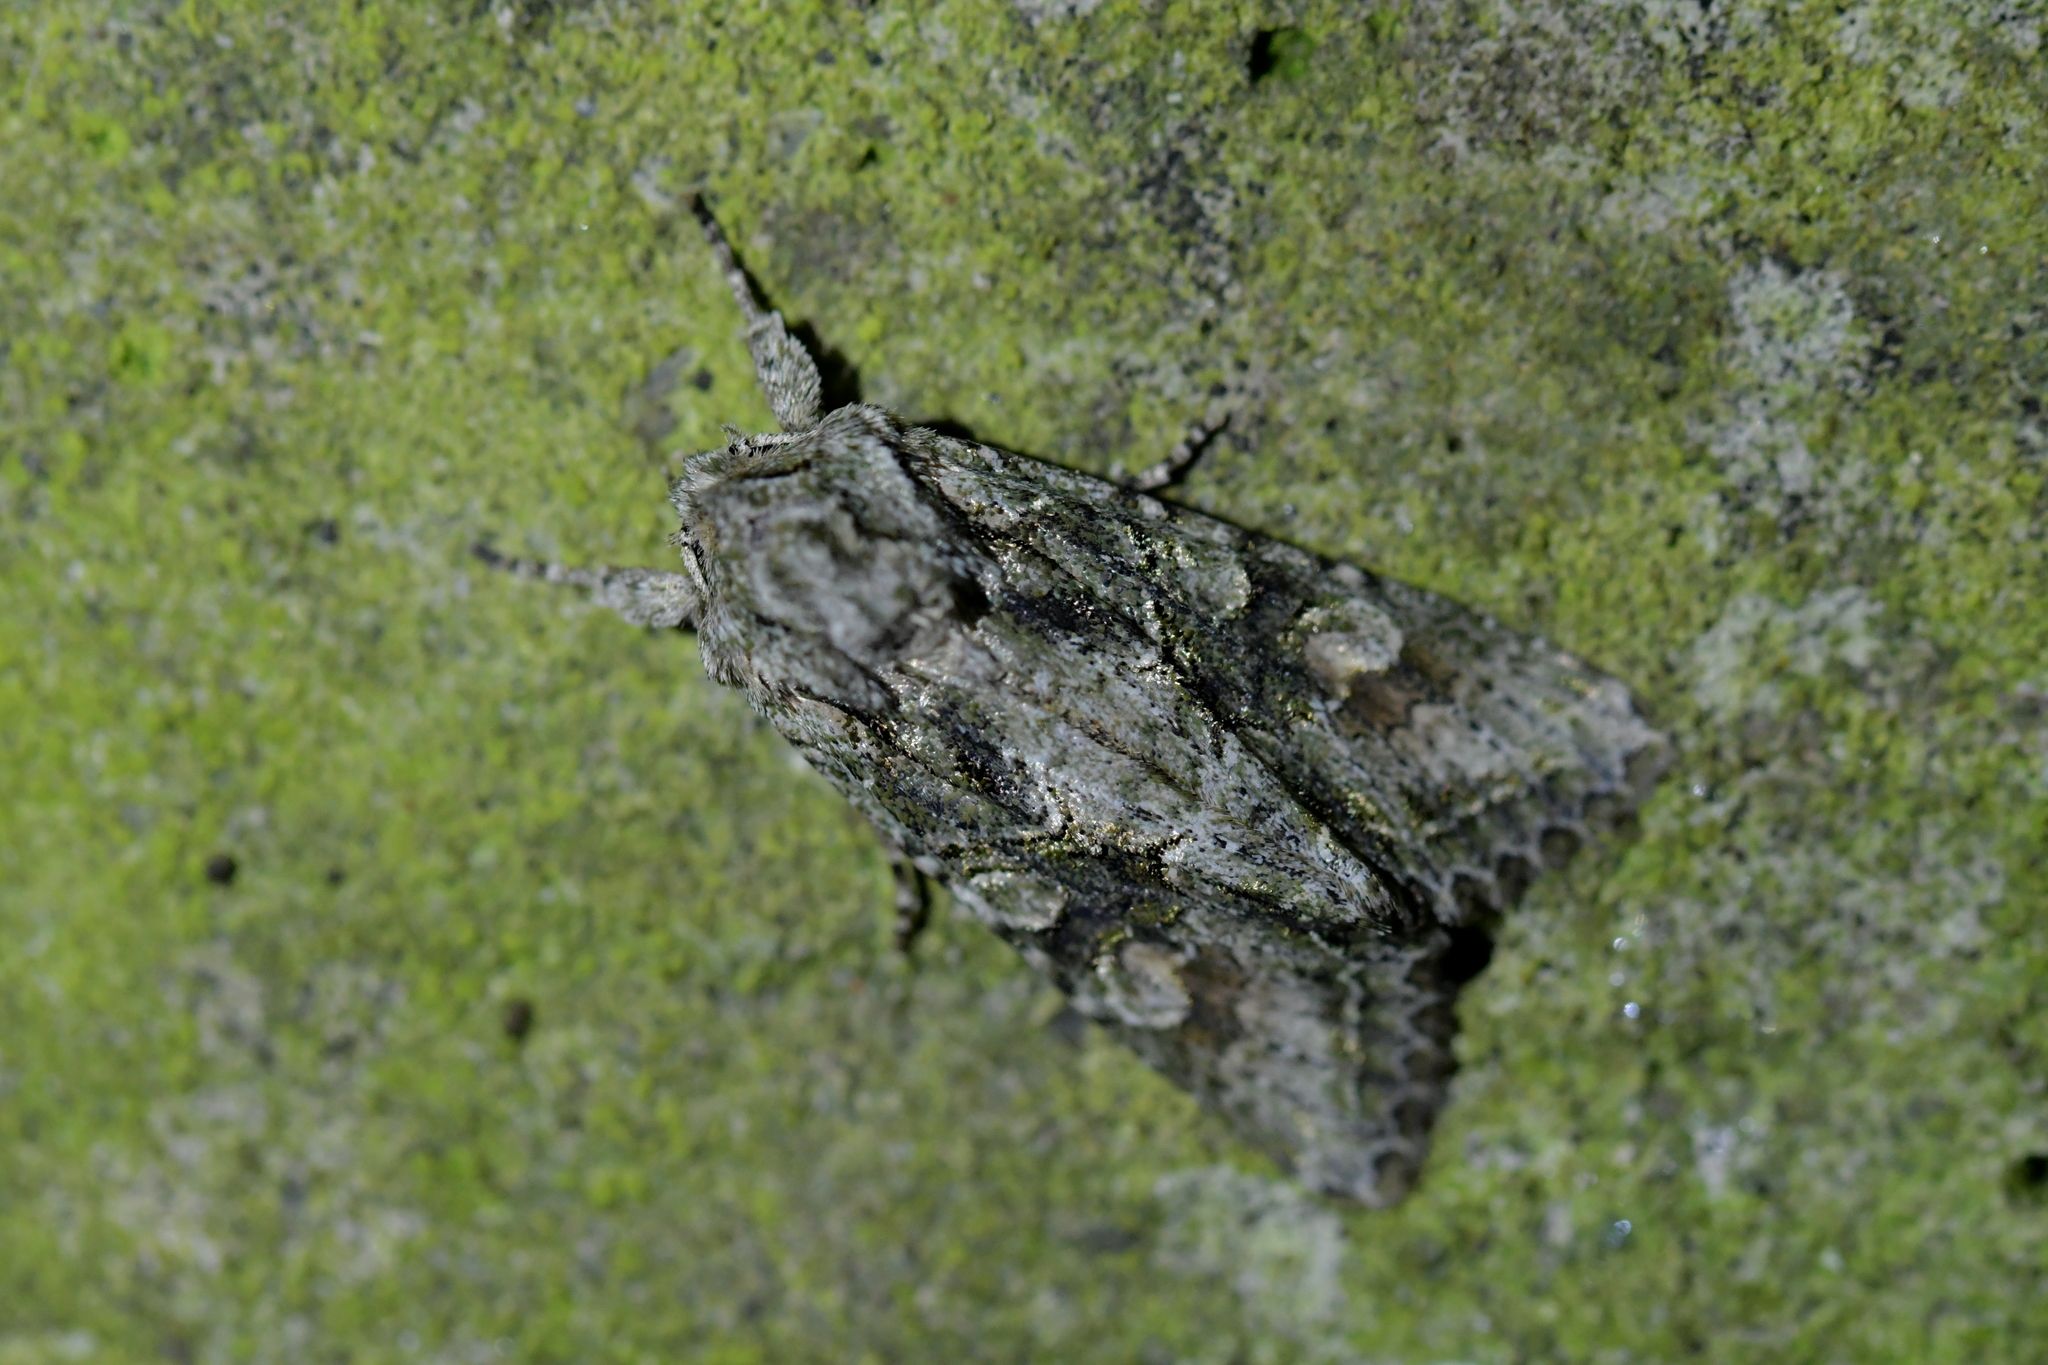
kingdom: Animalia
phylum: Arthropoda
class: Insecta
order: Lepidoptera
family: Noctuidae
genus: Ichneutica
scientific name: Ichneutica mutans
